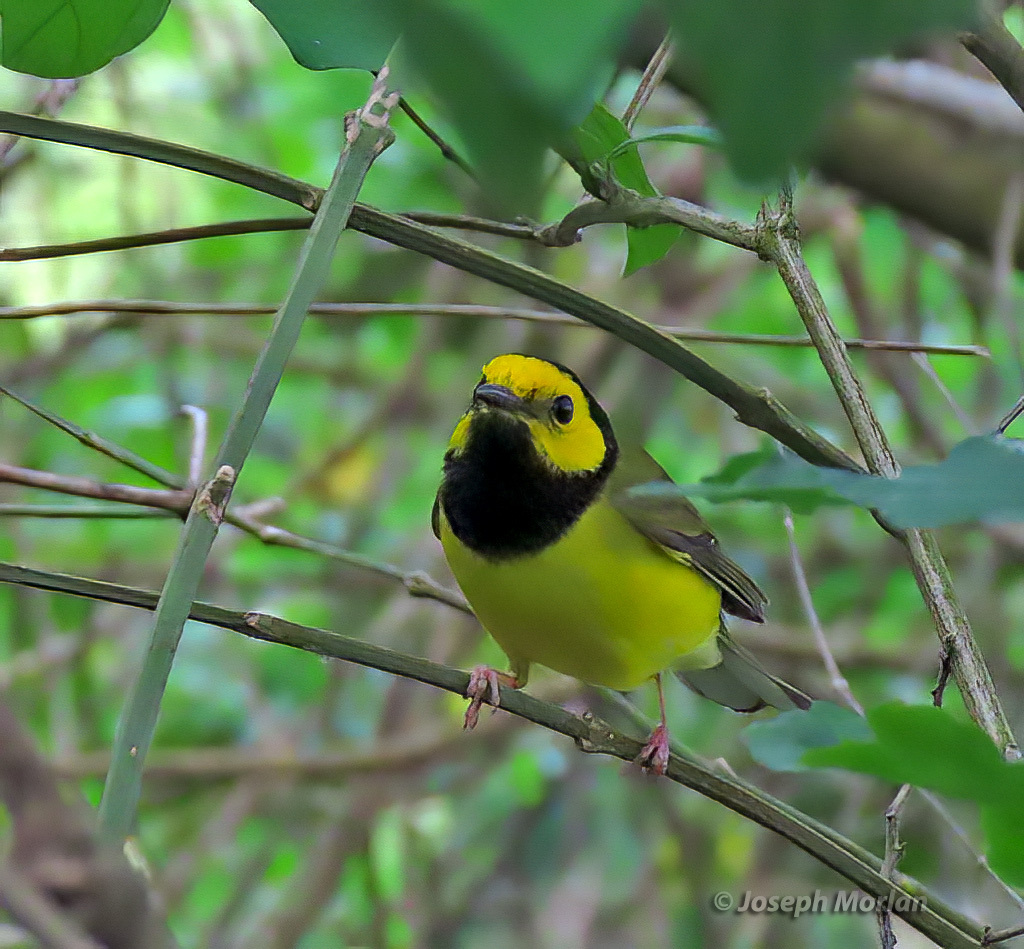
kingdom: Animalia
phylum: Chordata
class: Aves
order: Passeriformes
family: Parulidae
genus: Setophaga
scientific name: Setophaga citrina
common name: Hooded warbler
